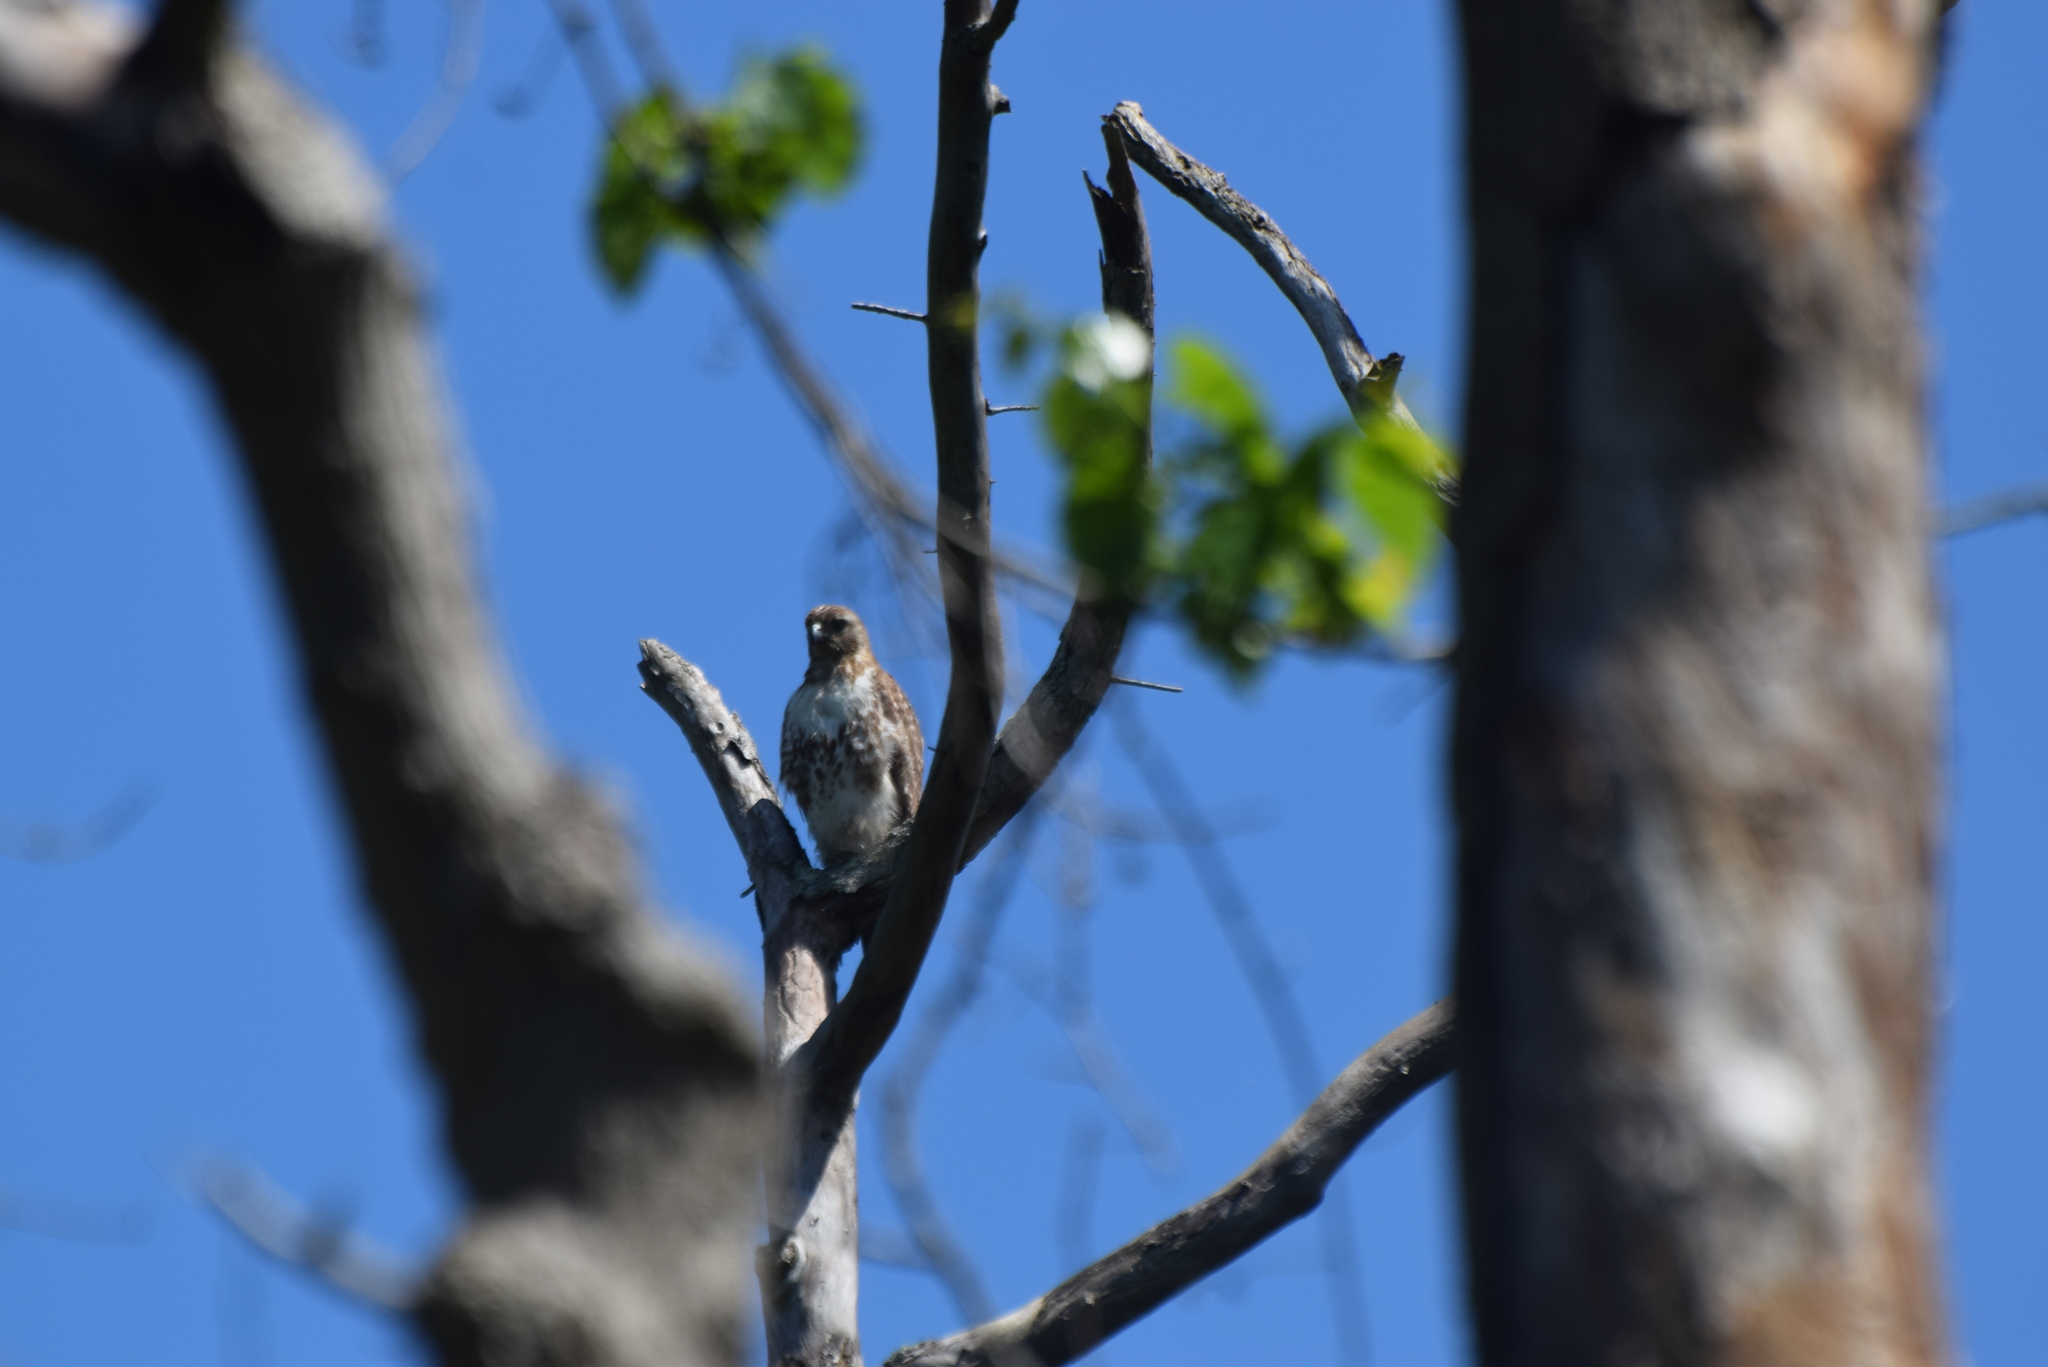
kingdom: Animalia
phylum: Chordata
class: Aves
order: Accipitriformes
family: Accipitridae
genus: Buteo
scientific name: Buteo jamaicensis
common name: Red-tailed hawk
